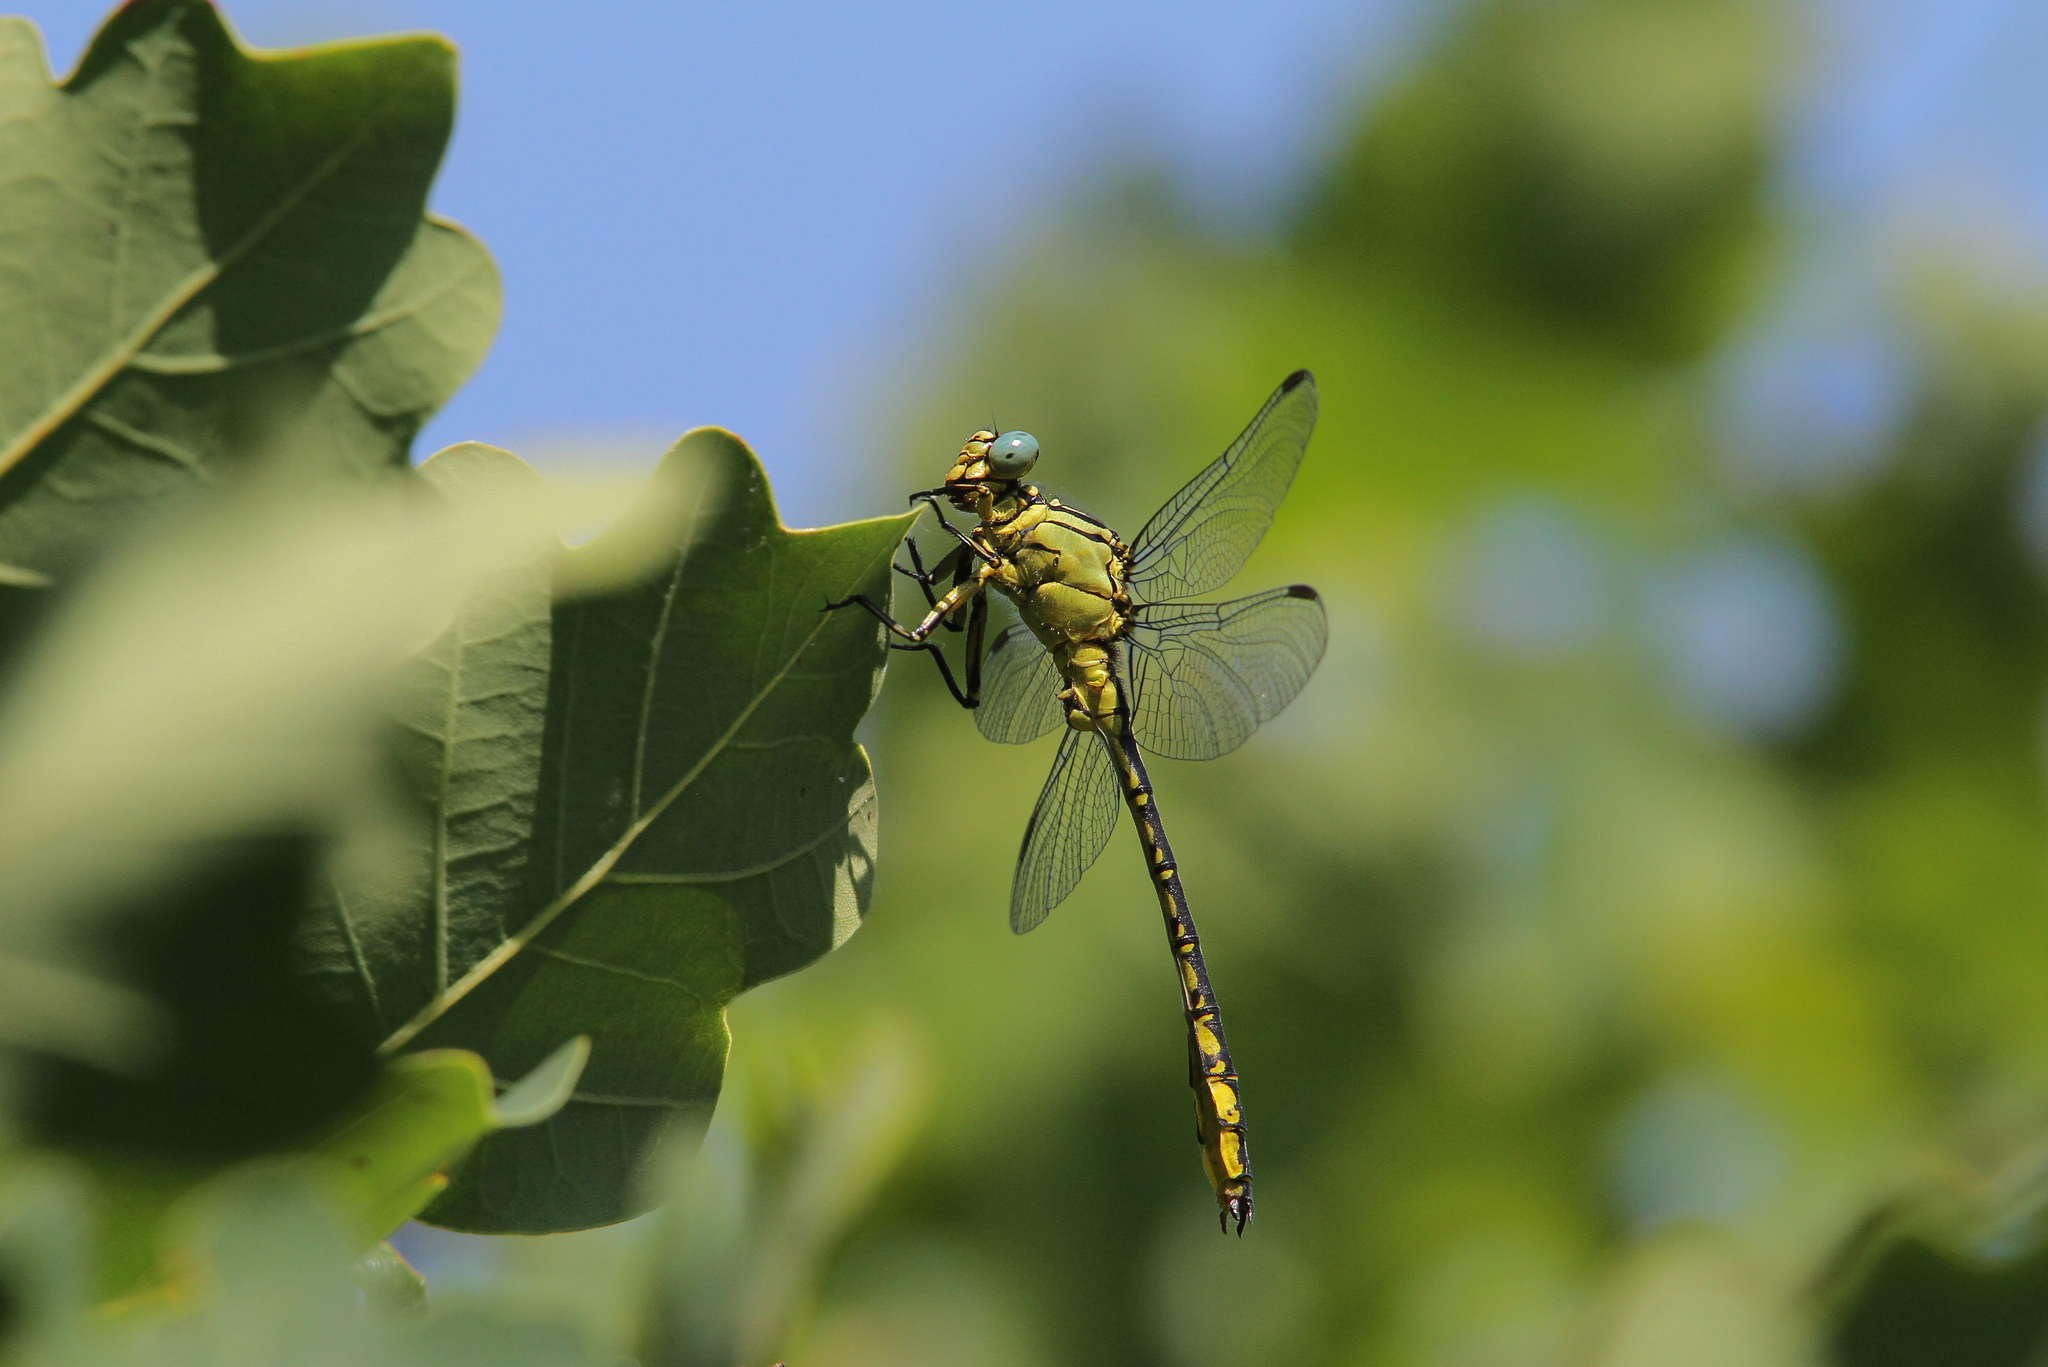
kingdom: Animalia
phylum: Arthropoda
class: Insecta
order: Odonata
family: Gomphidae
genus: Stylurus
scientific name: Stylurus flavipes
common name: River clubtail
